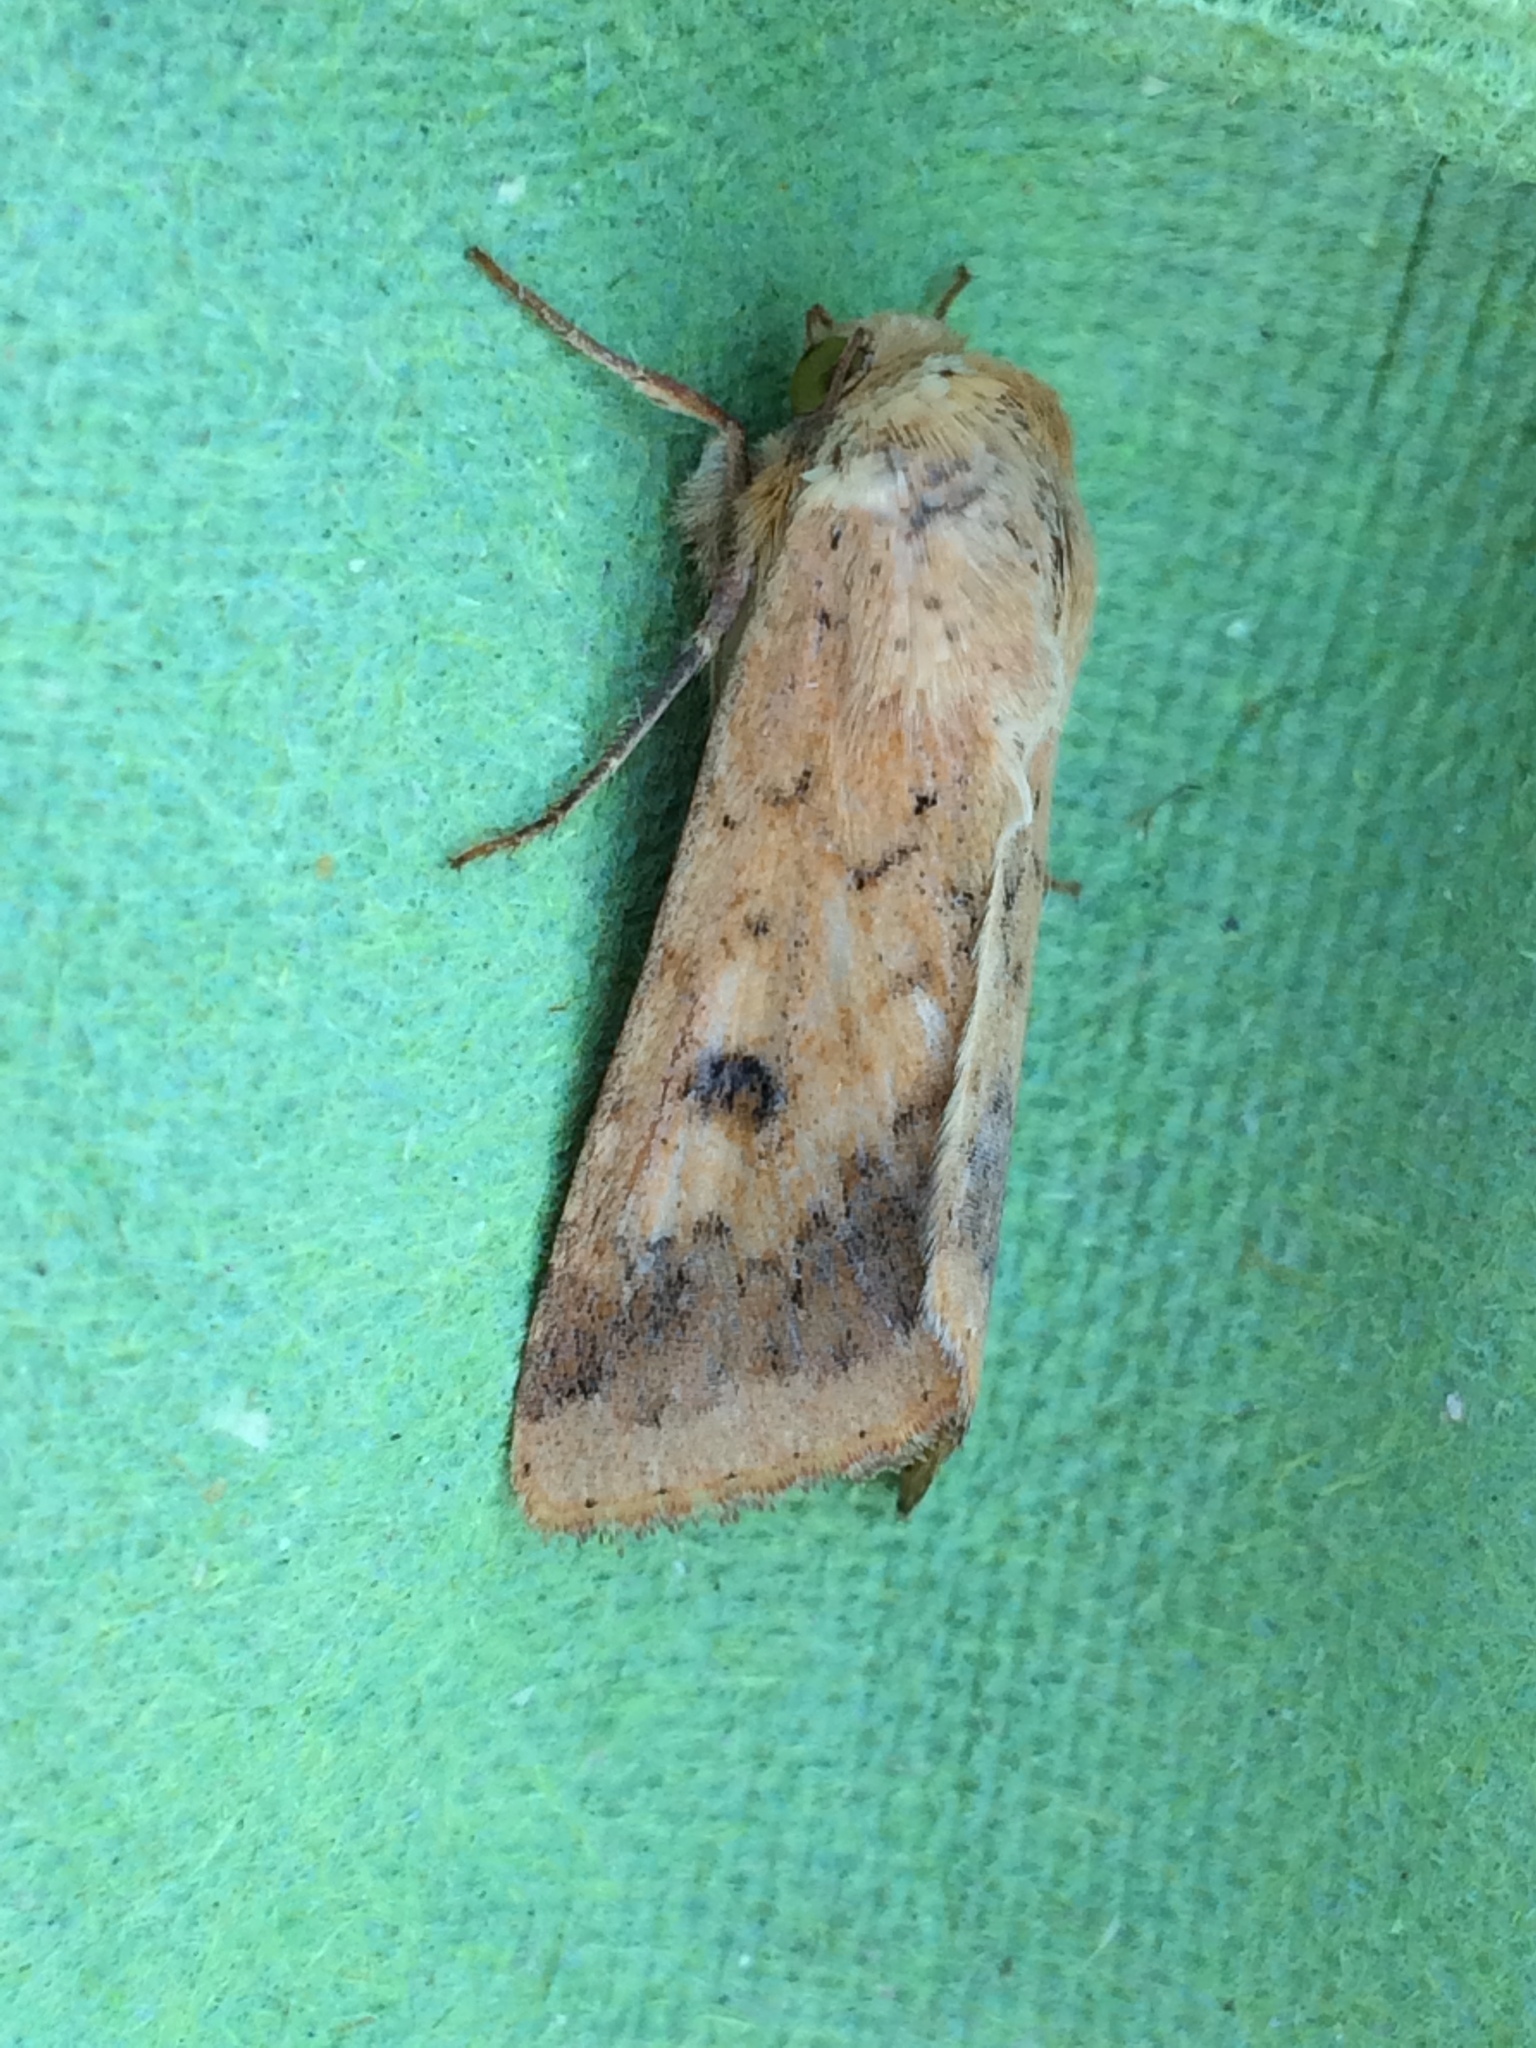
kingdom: Animalia
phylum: Arthropoda
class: Insecta
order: Lepidoptera
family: Noctuidae
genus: Helicoverpa
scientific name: Helicoverpa armigera
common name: Cotton bollworm
